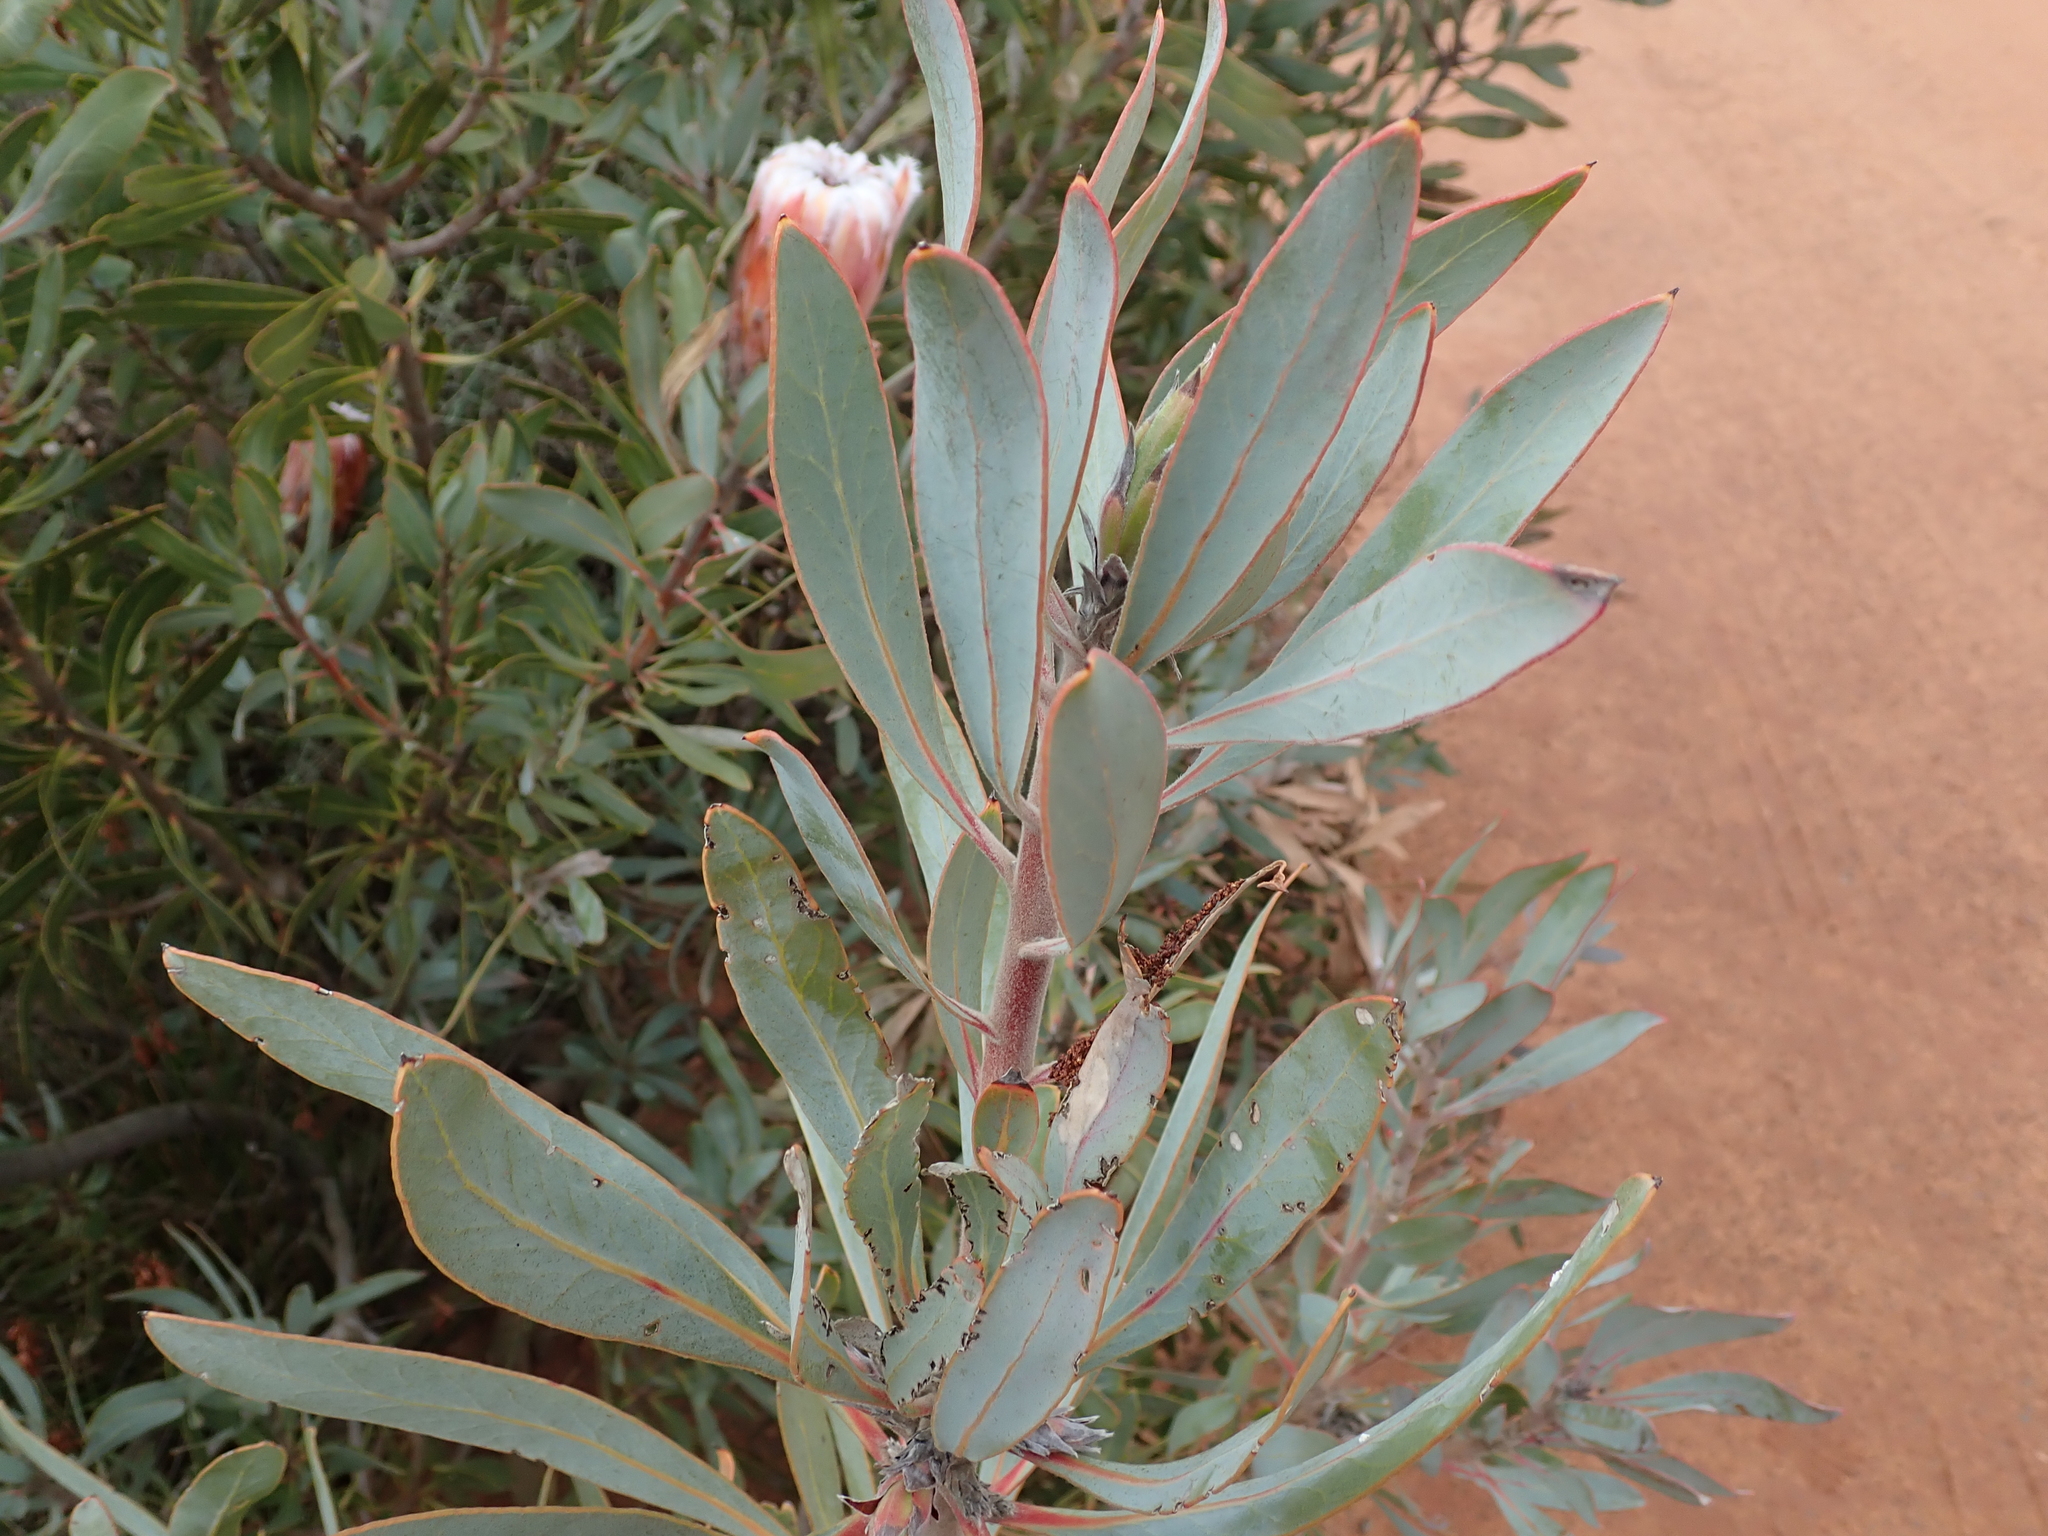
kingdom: Plantae
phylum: Tracheophyta
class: Magnoliopsida
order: Proteales
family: Proteaceae
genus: Protea
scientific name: Protea laurifolia
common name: Grey-leaf sugarbsh
